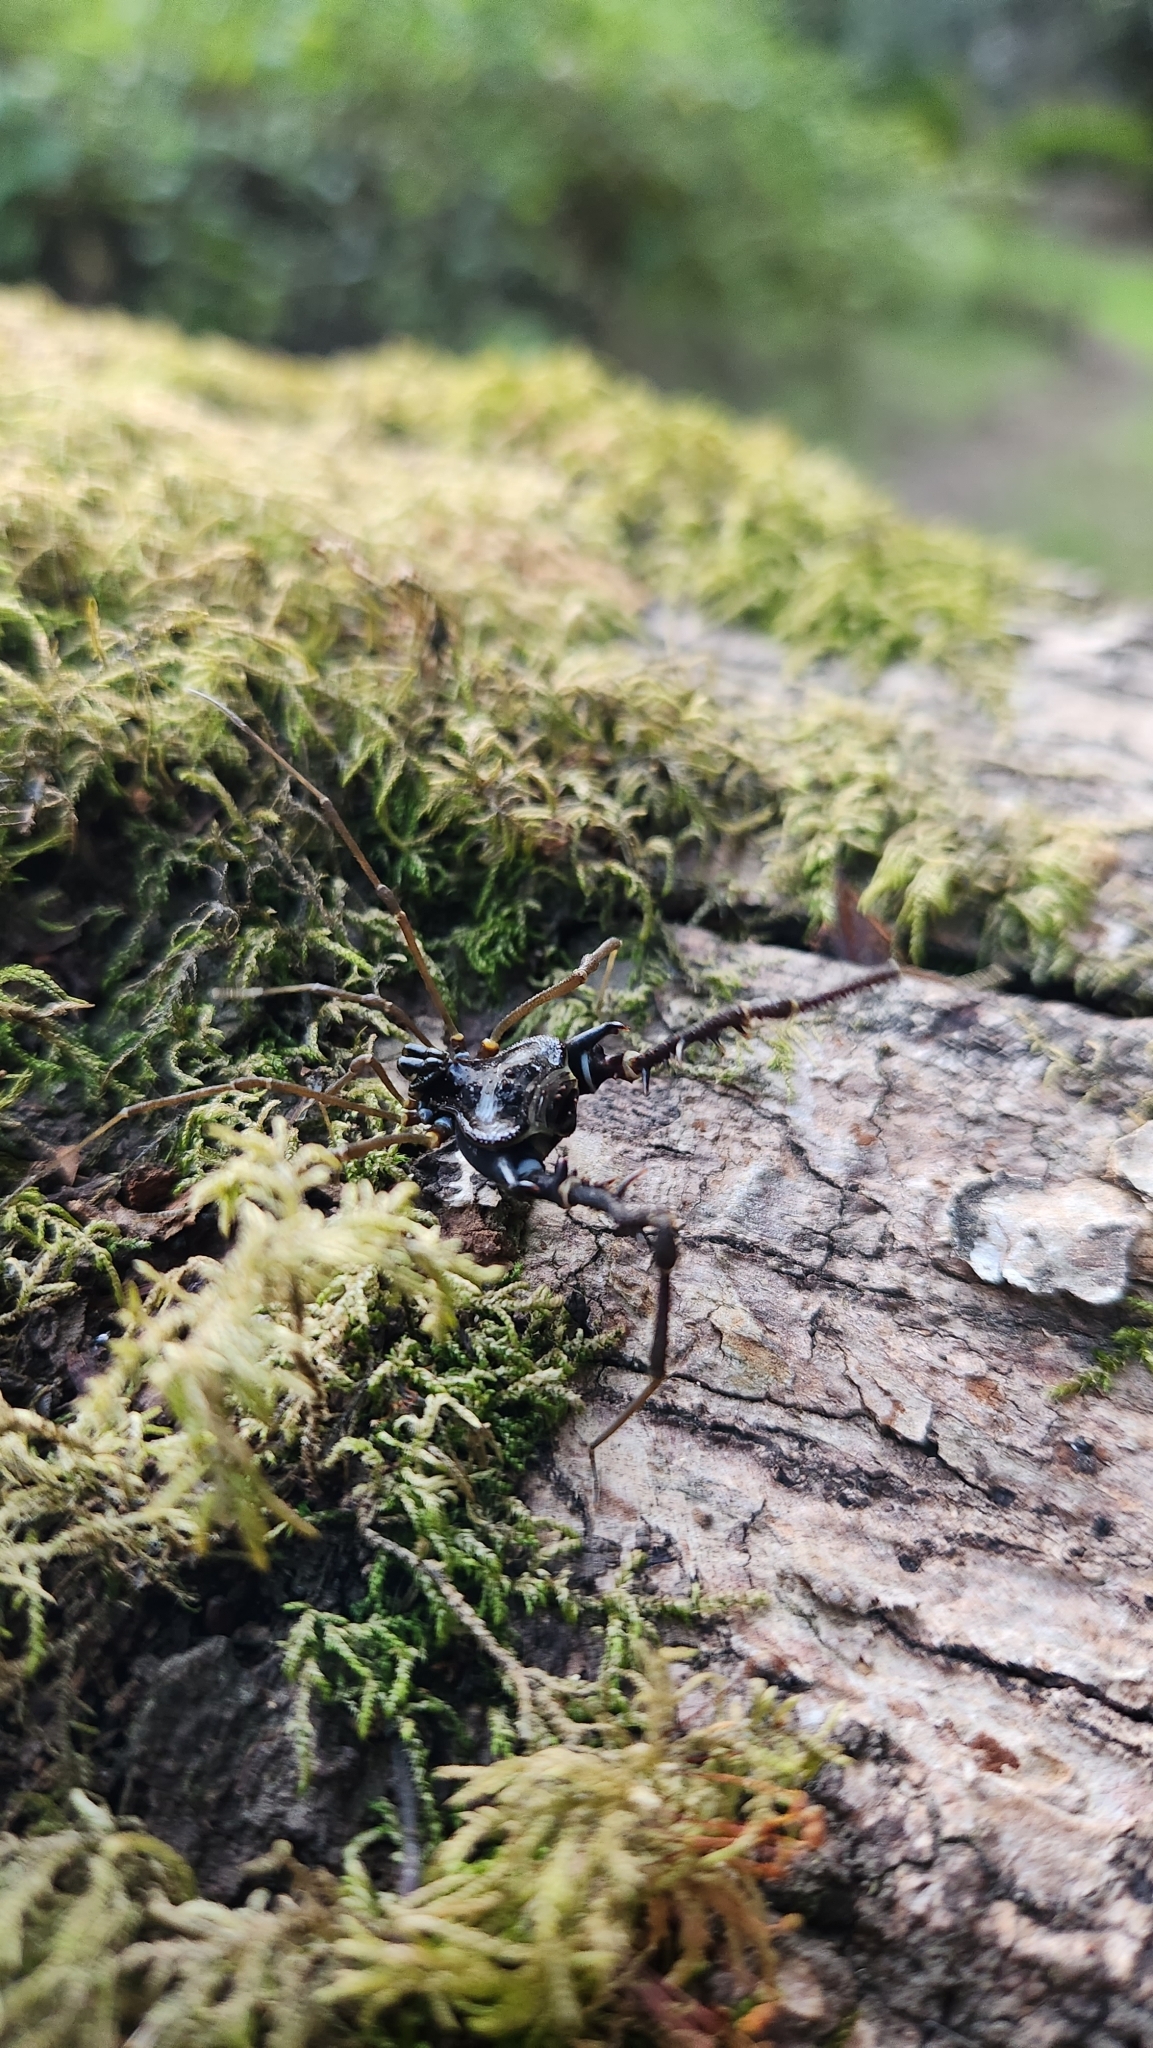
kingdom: Animalia
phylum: Arthropoda
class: Arachnida
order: Opiliones
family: Gonyleptidae
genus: Sadocus
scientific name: Sadocus asperatus
